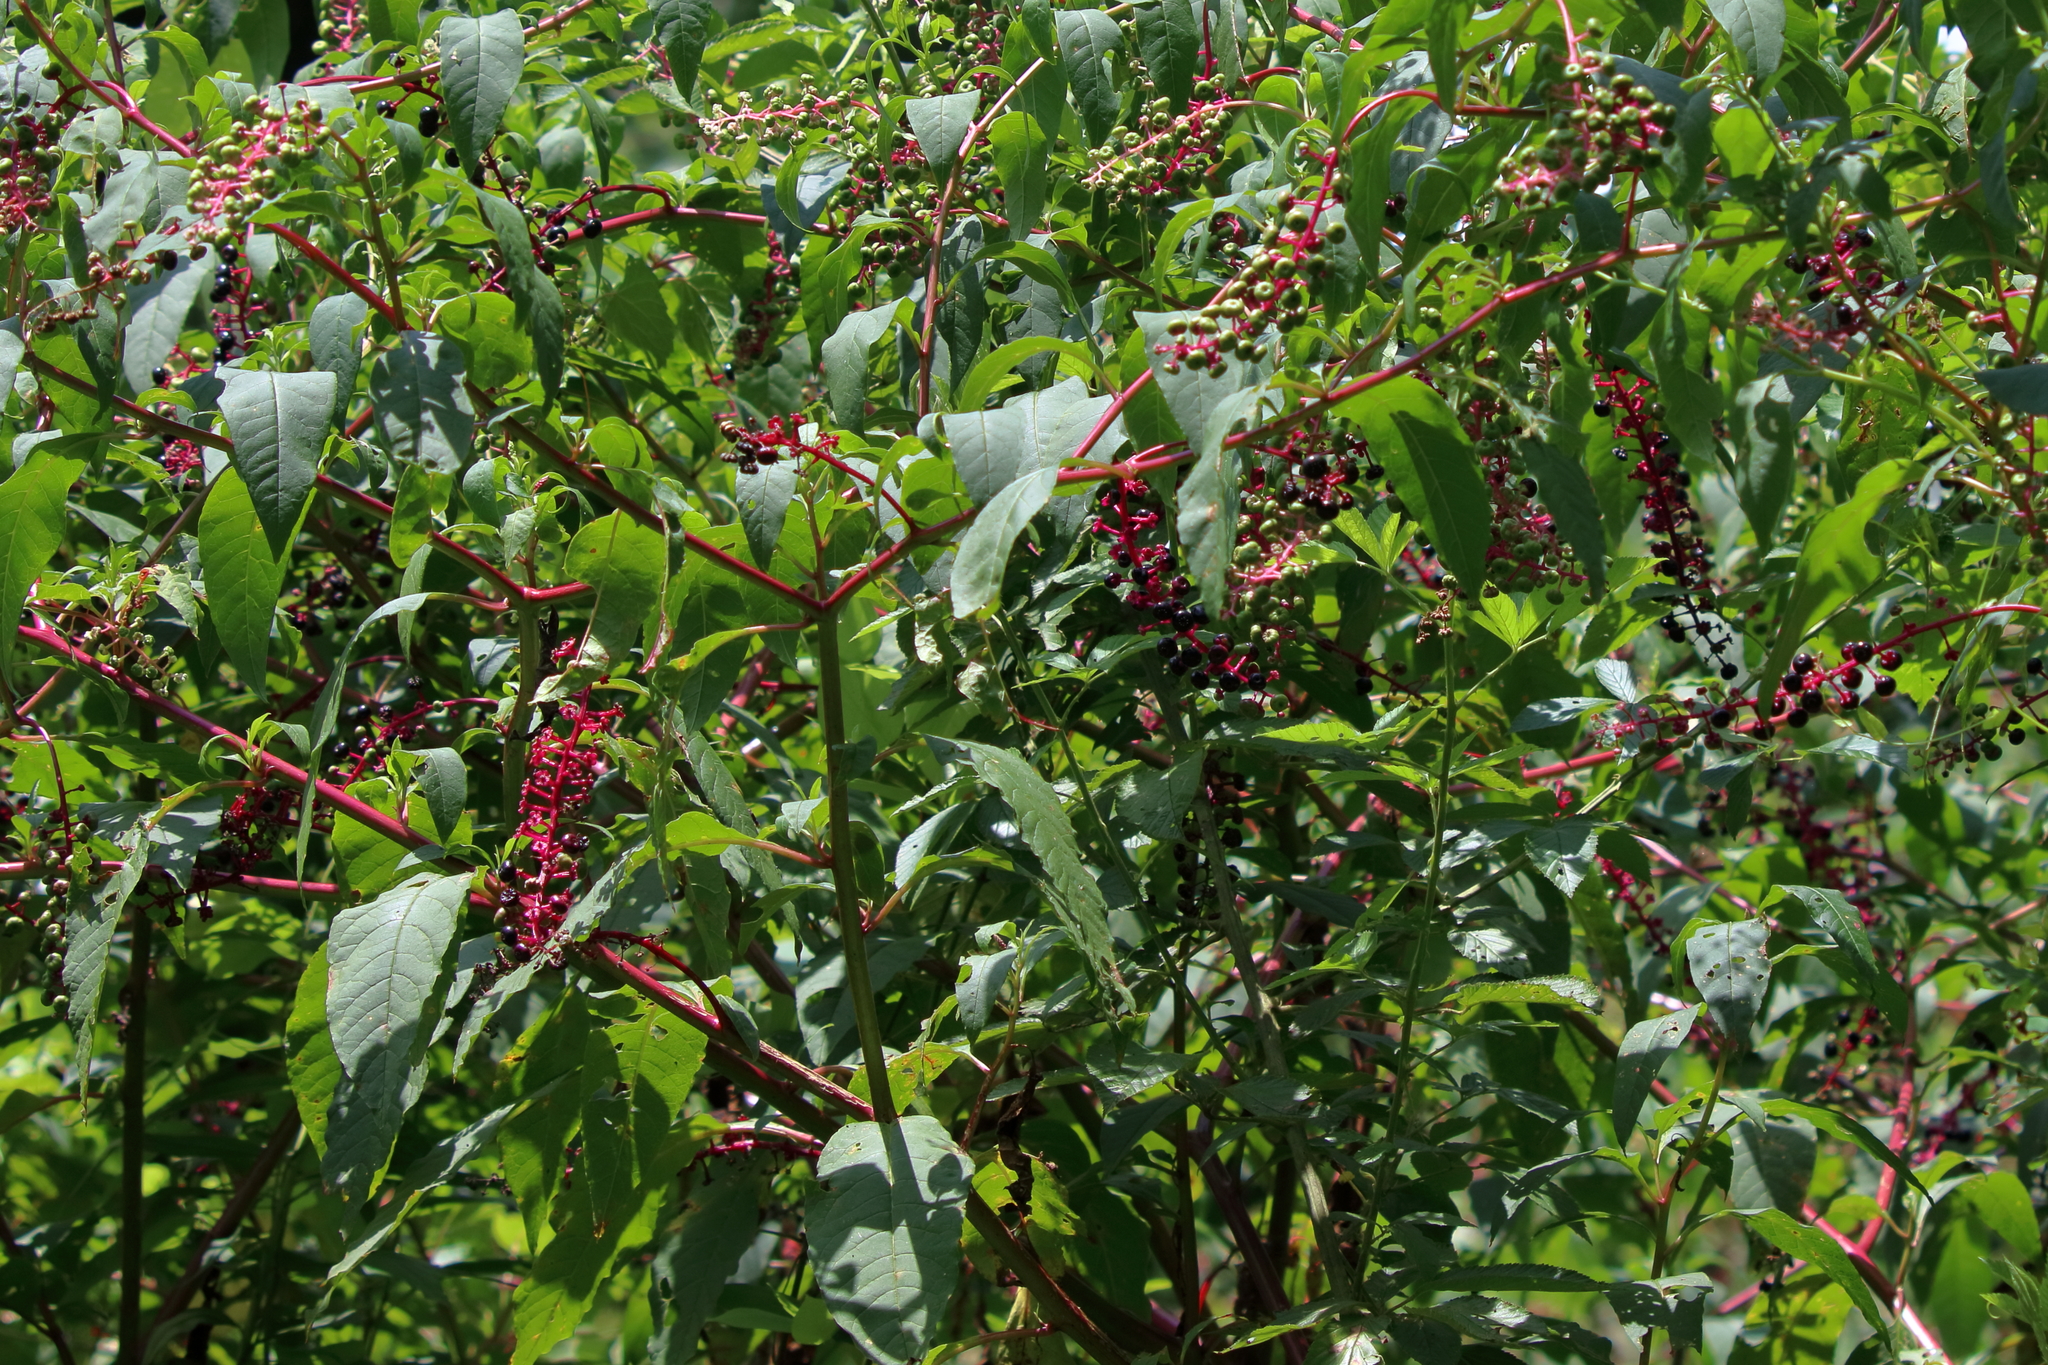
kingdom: Plantae
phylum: Tracheophyta
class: Magnoliopsida
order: Caryophyllales
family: Phytolaccaceae
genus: Phytolacca
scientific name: Phytolacca americana
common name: American pokeweed
